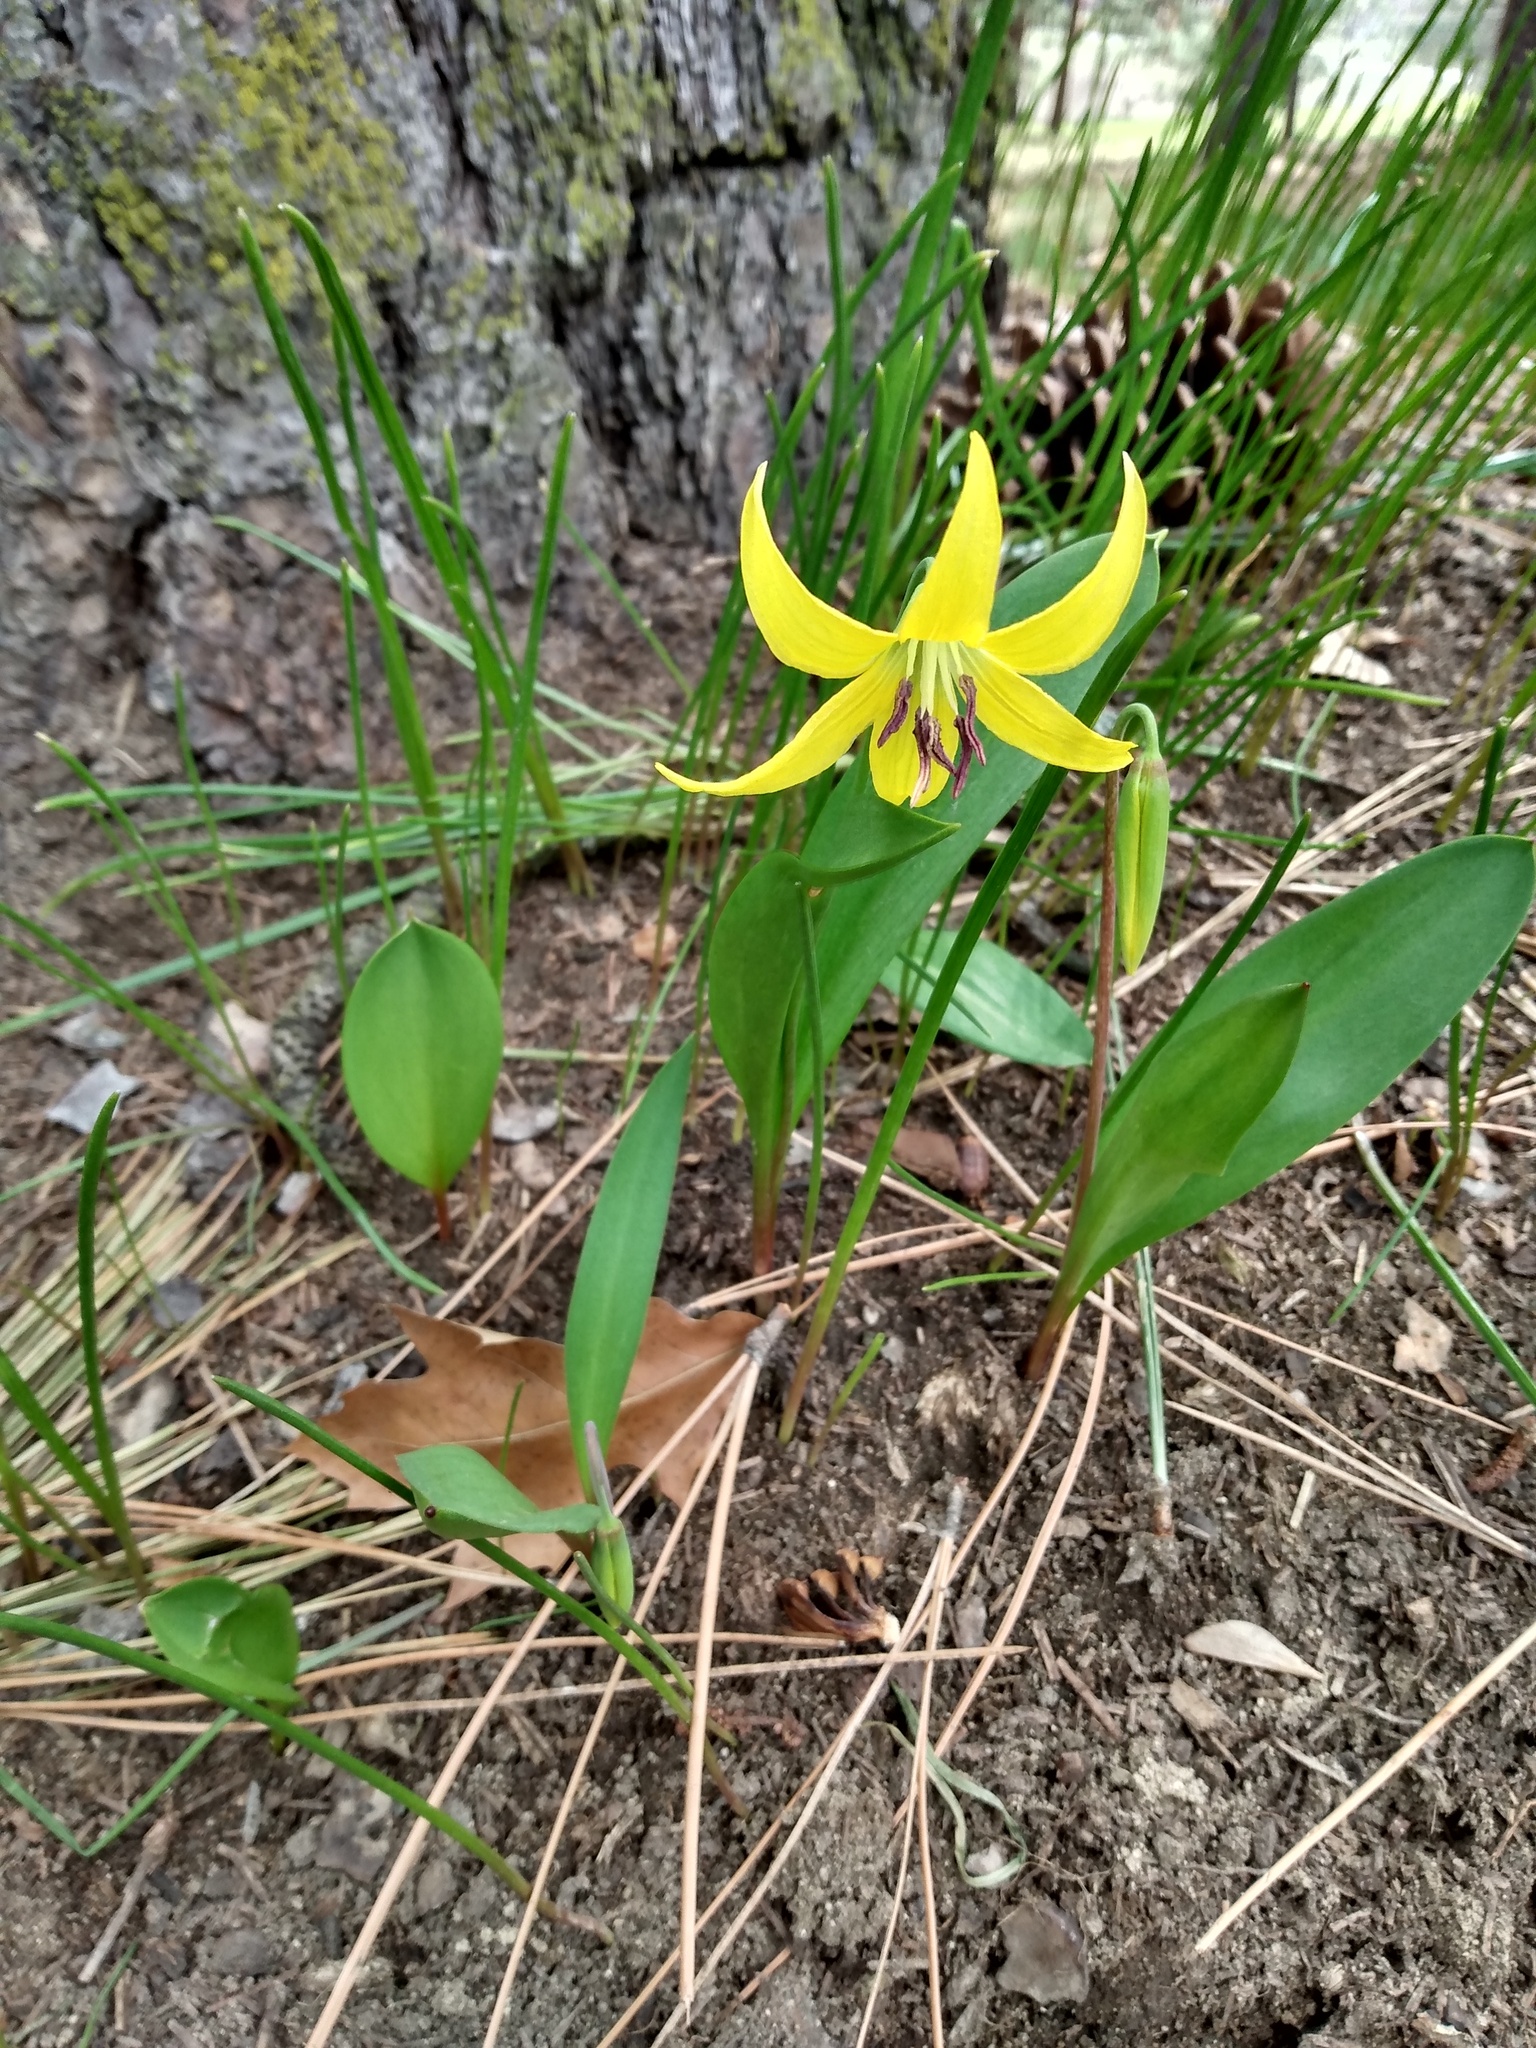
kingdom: Plantae
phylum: Tracheophyta
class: Liliopsida
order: Liliales
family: Liliaceae
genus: Erythronium
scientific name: Erythronium grandiflorum
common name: Avalanche-lily
